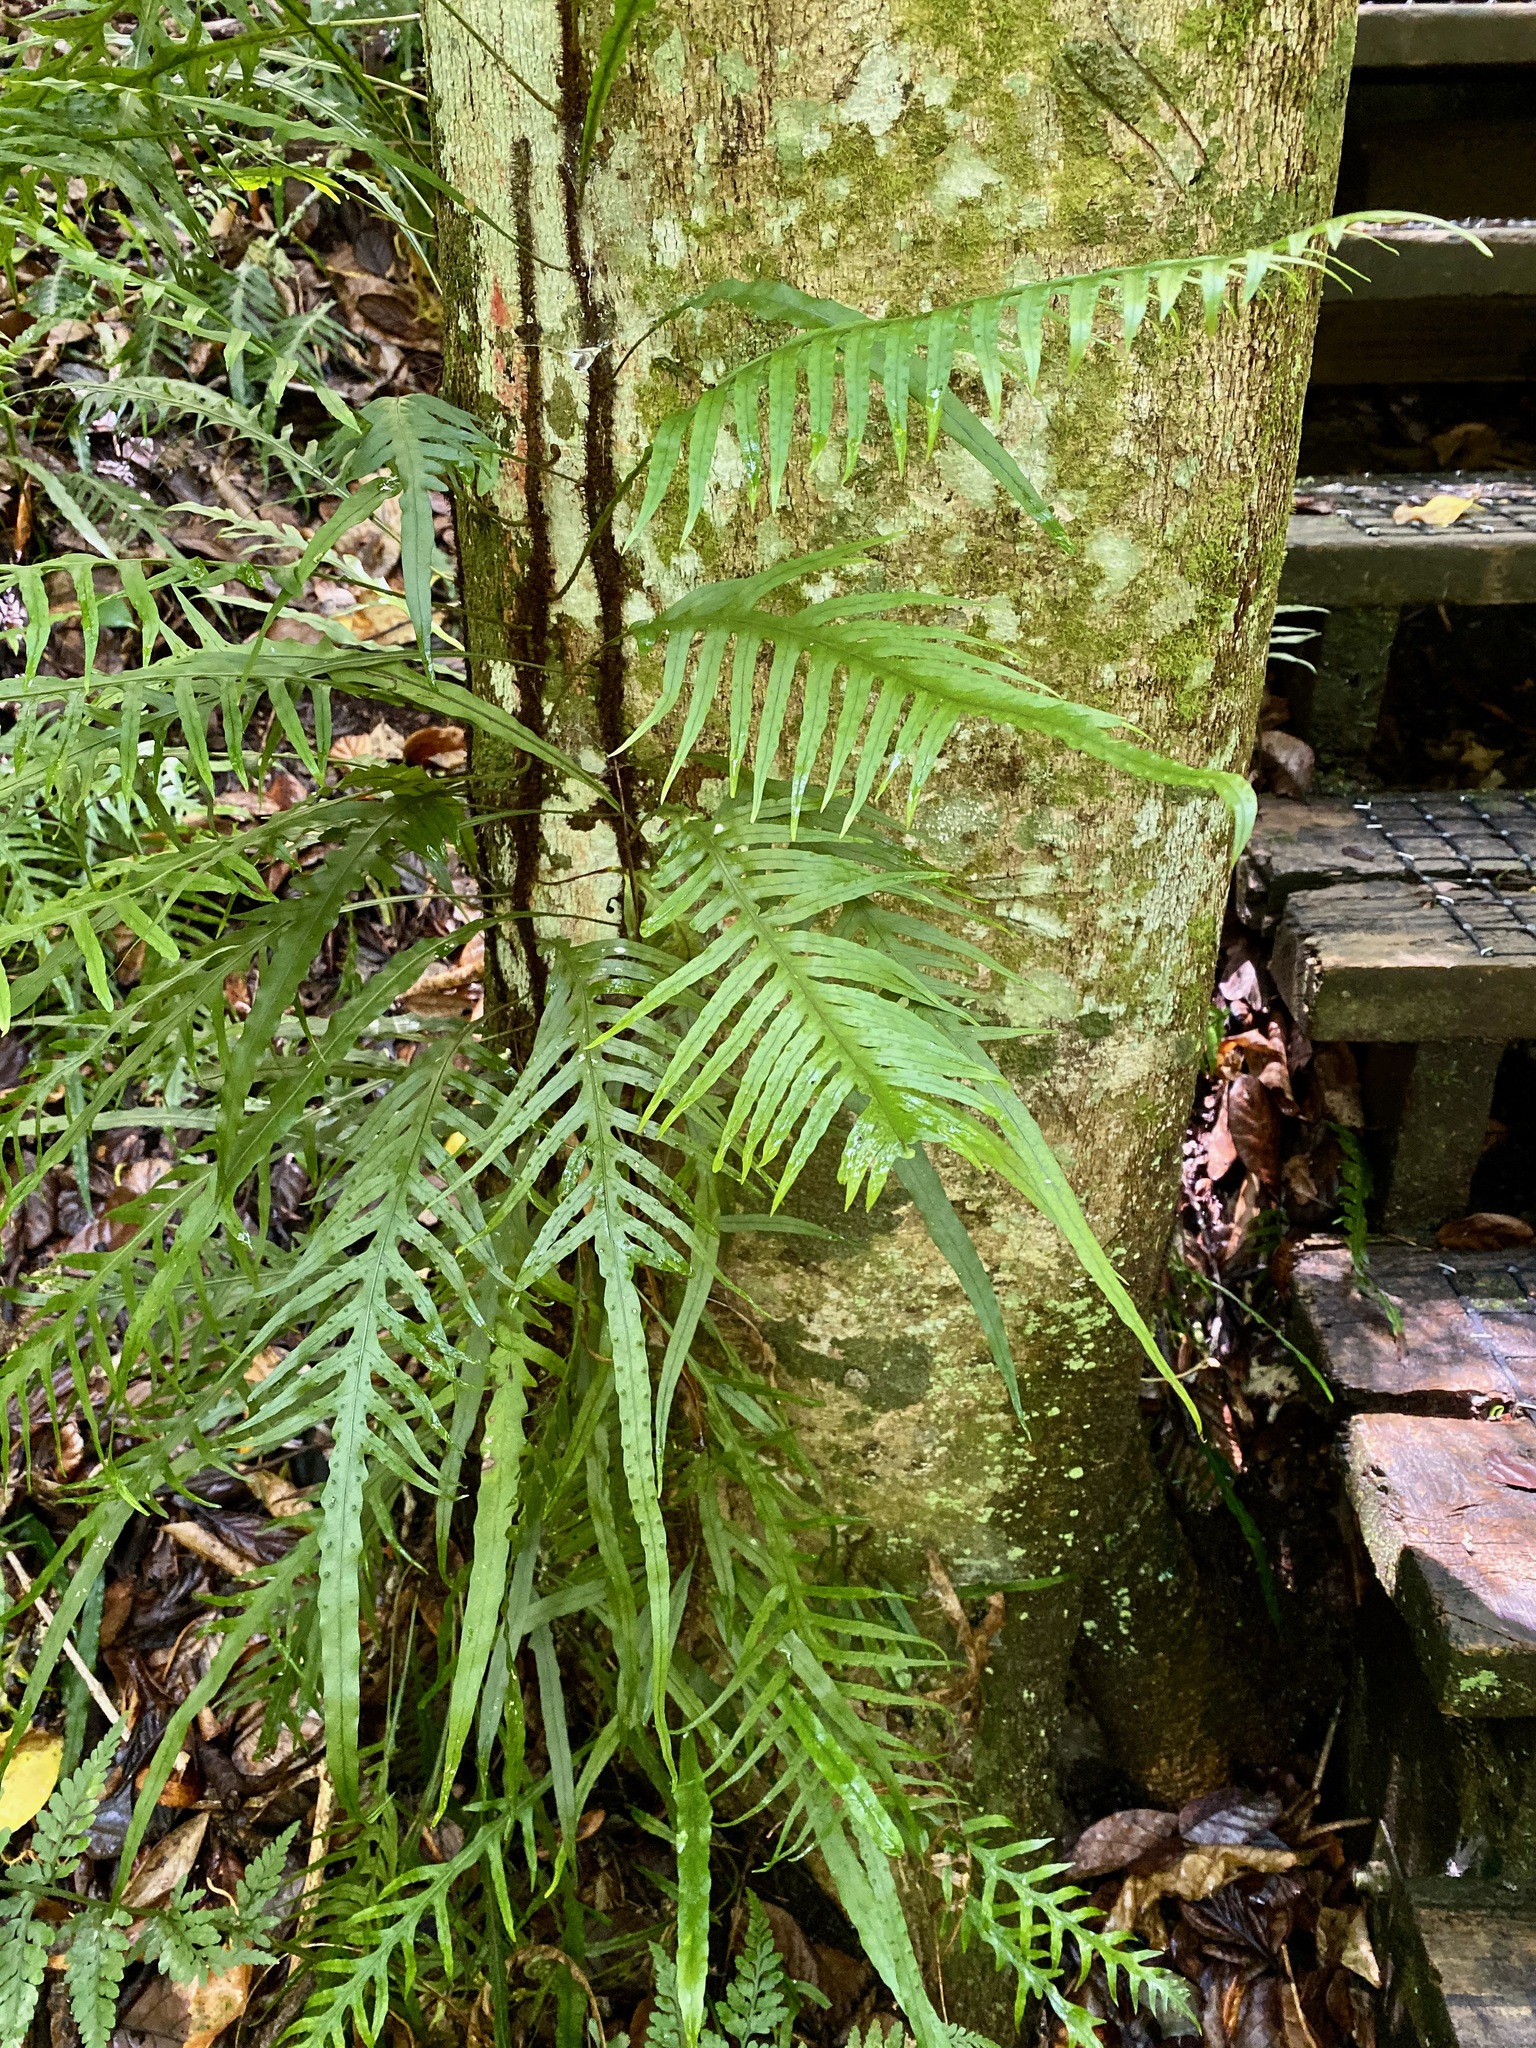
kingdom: Plantae
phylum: Tracheophyta
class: Polypodiopsida
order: Polypodiales
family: Polypodiaceae
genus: Lecanopteris
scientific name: Lecanopteris scandens
